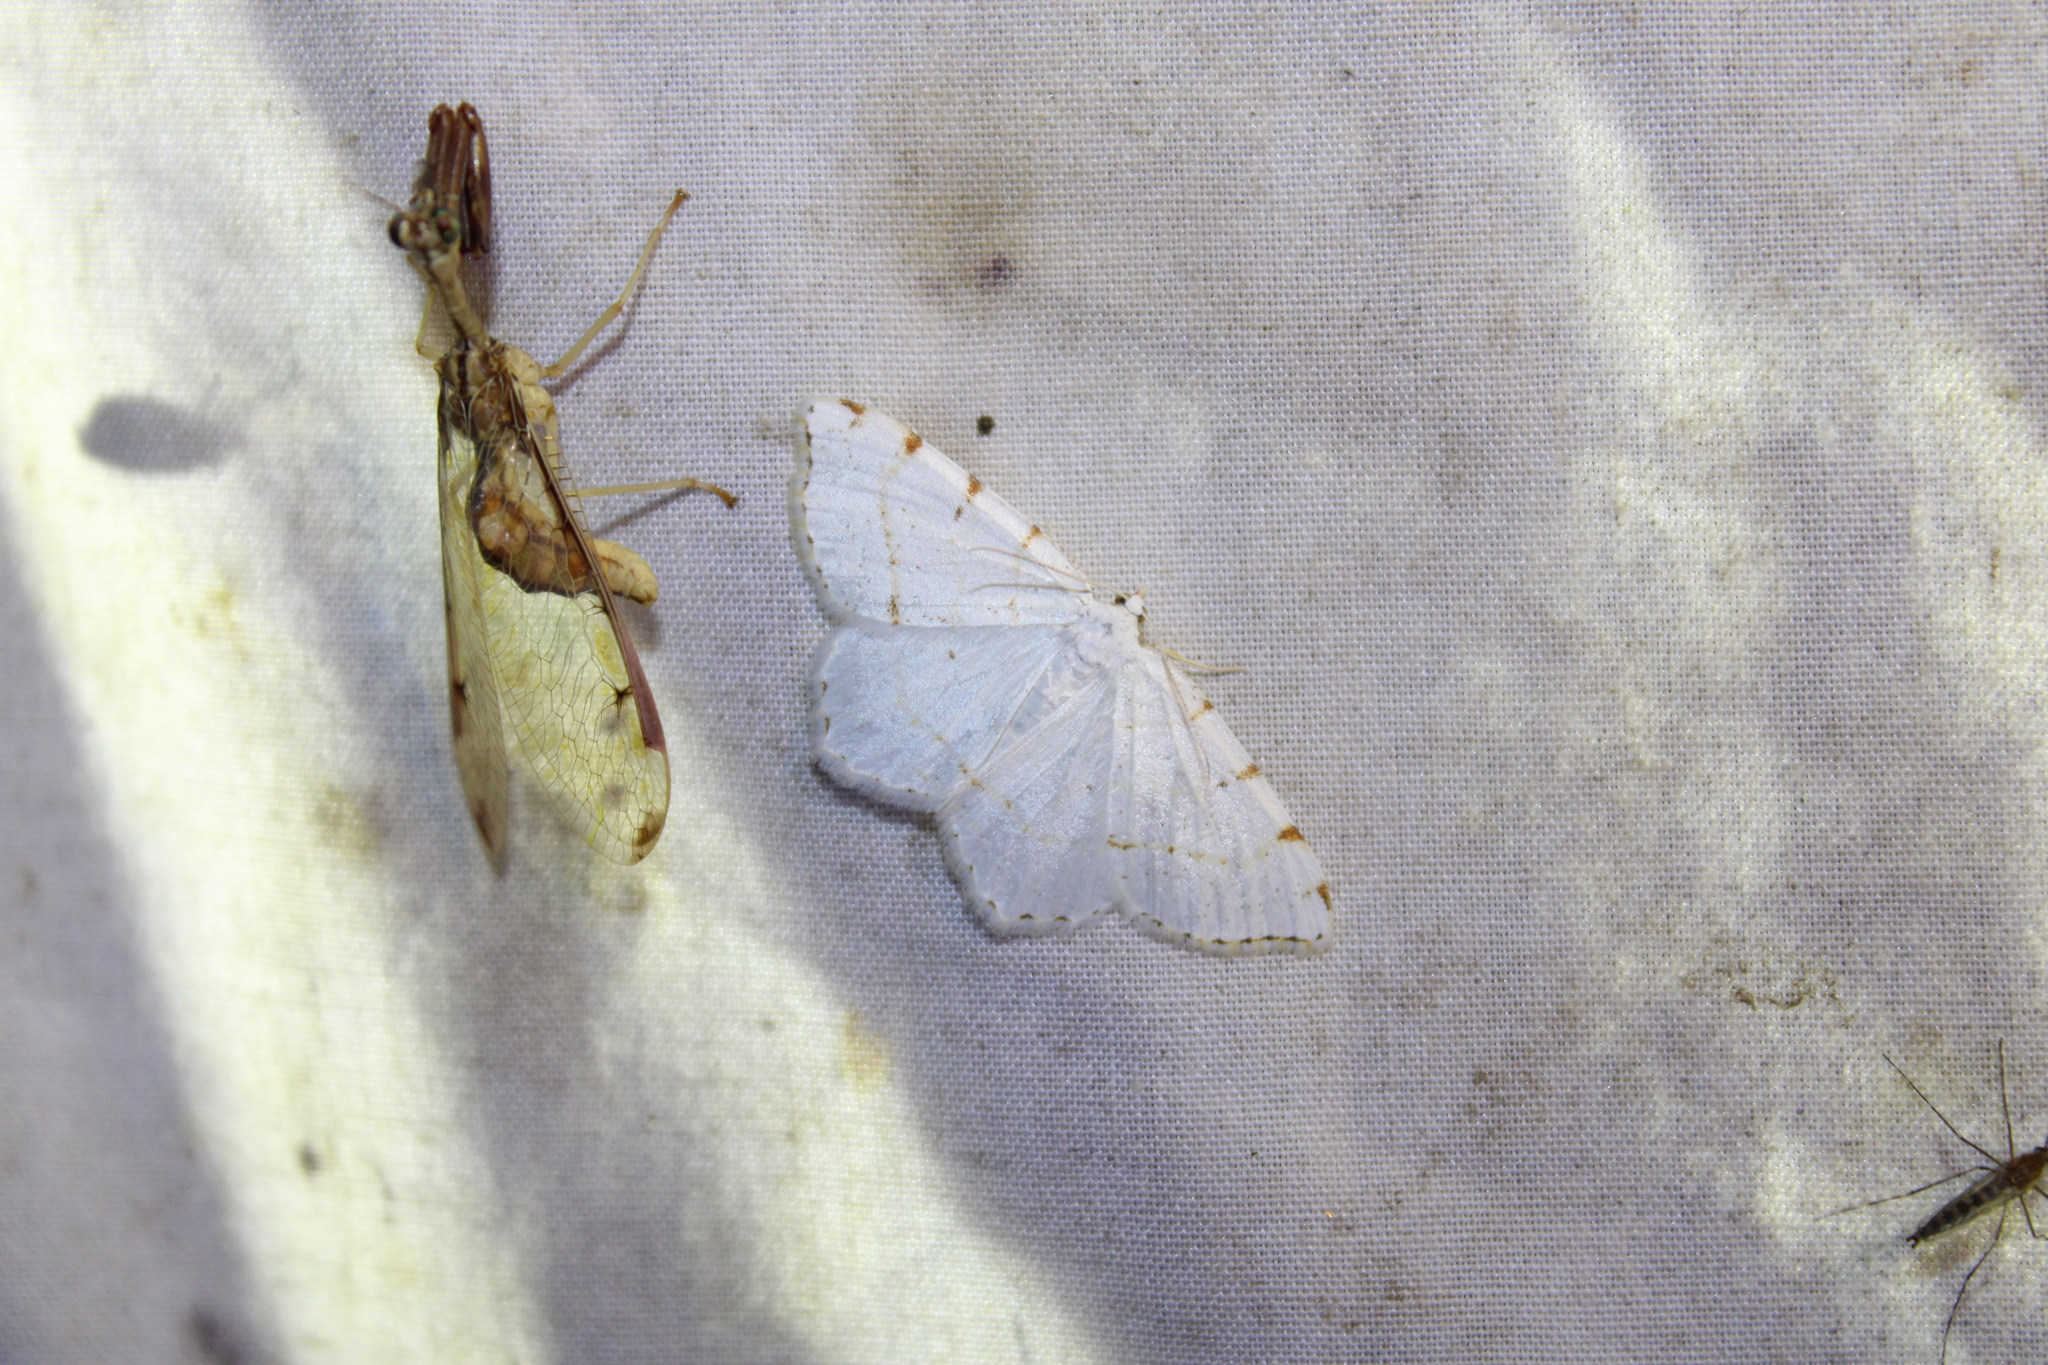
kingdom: Animalia
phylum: Arthropoda
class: Insecta
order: Lepidoptera
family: Geometridae
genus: Macaria
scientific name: Macaria pustularia
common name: Lesser maple spanworm moth
